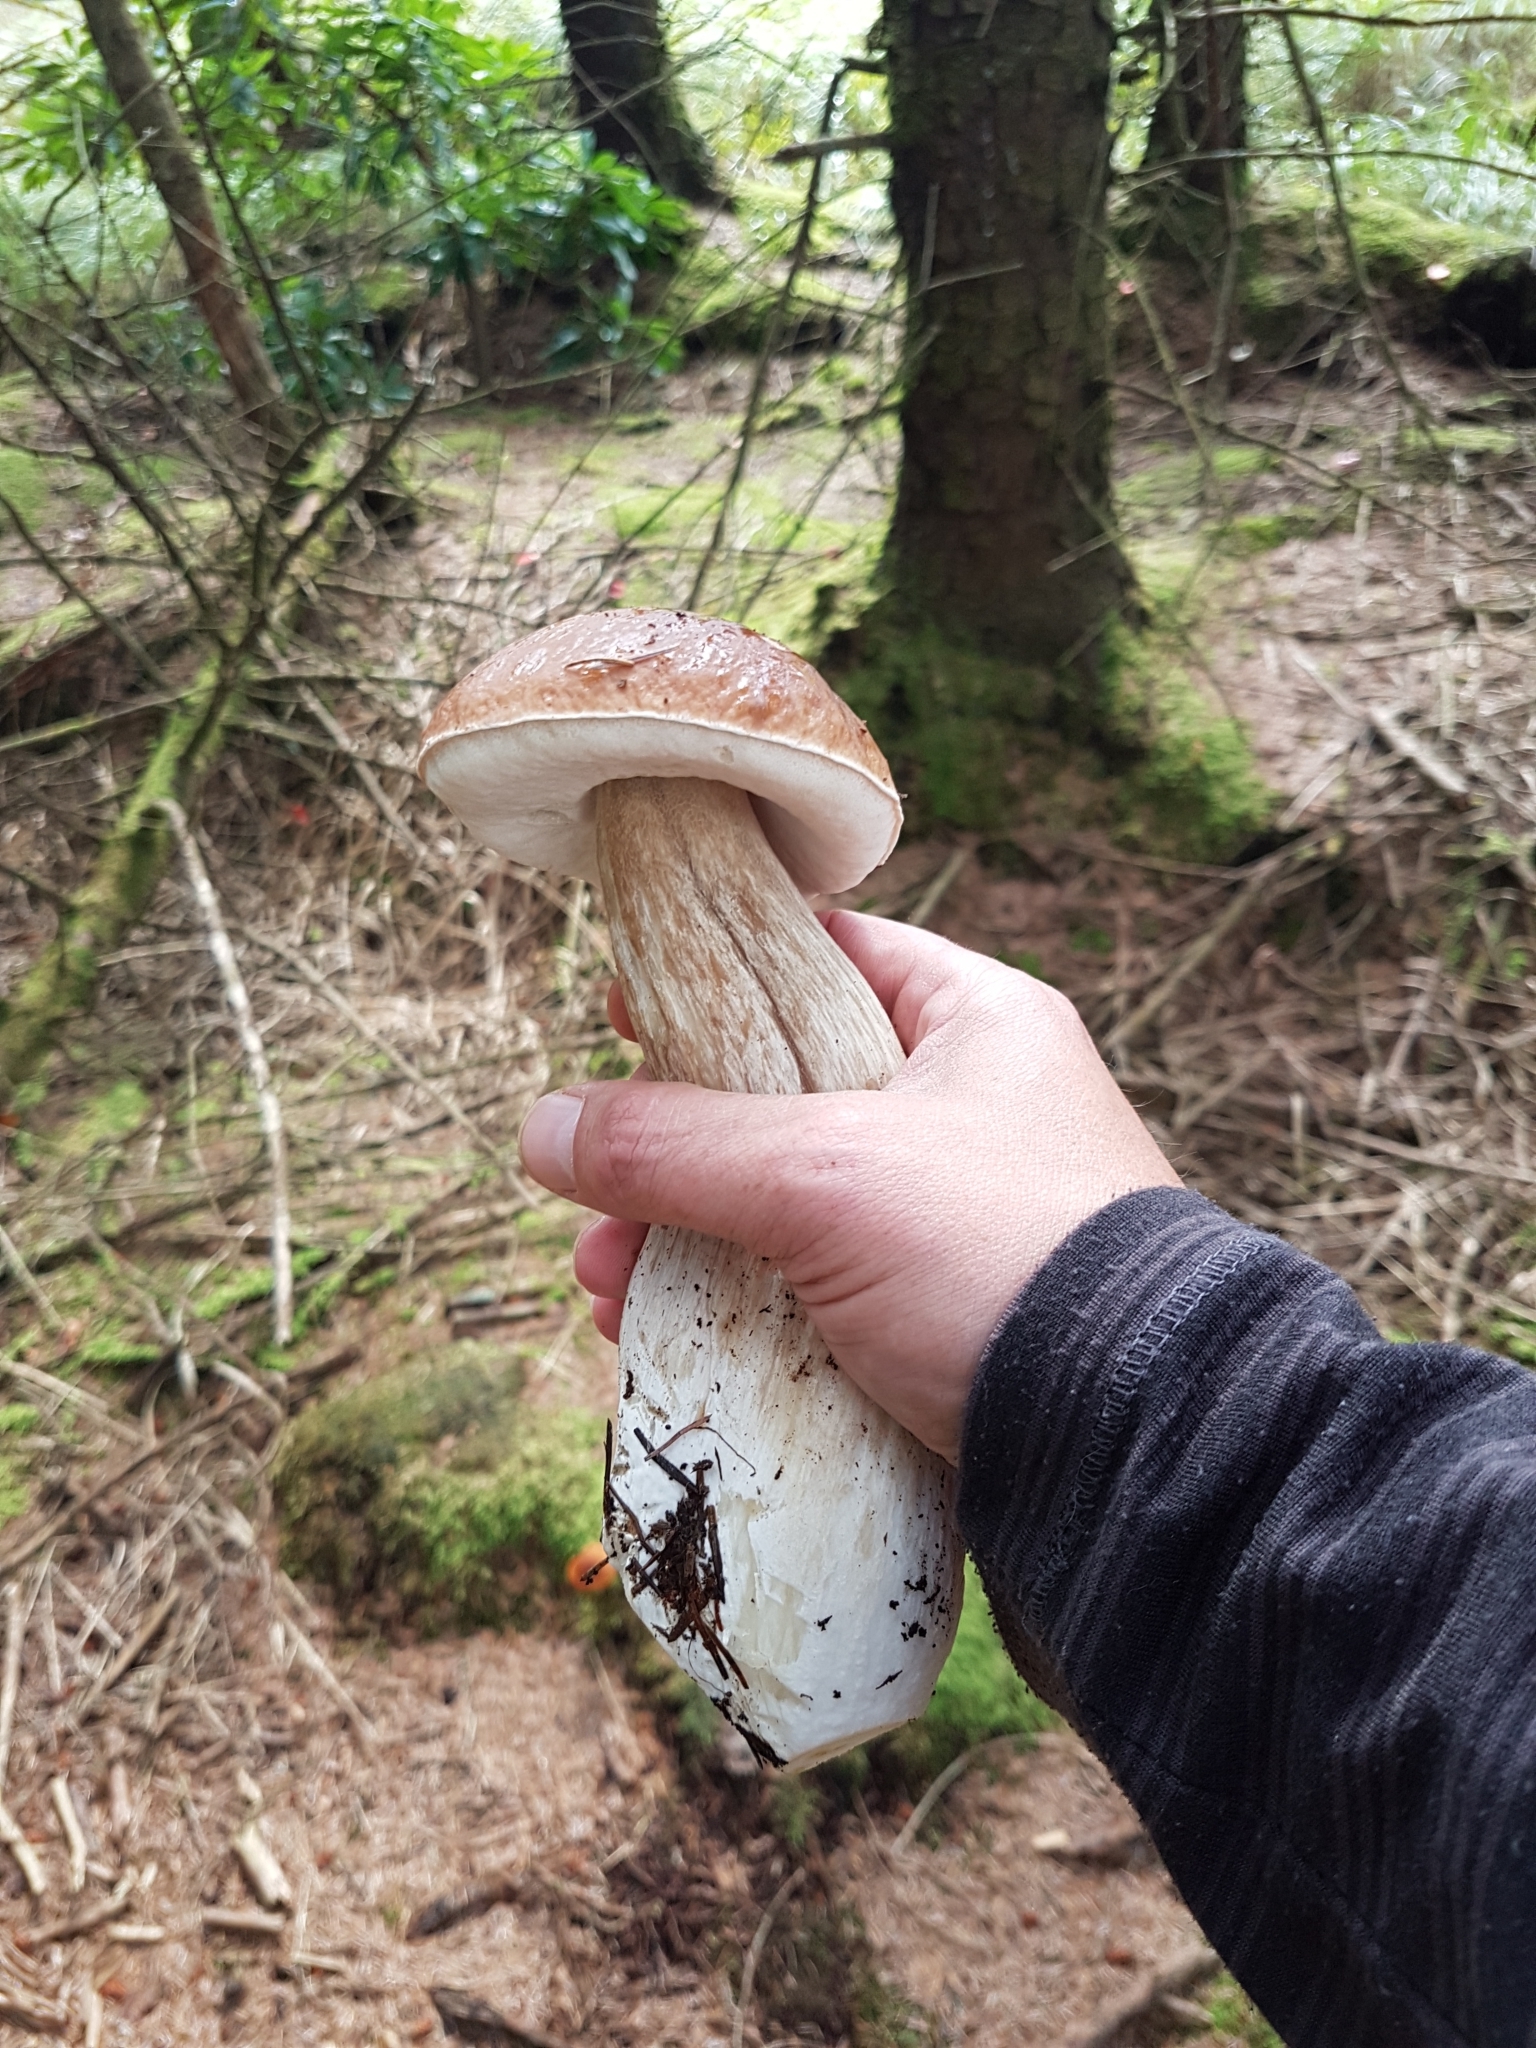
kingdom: Fungi
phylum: Basidiomycota
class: Agaricomycetes
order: Boletales
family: Boletaceae
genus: Boletus
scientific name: Boletus edulis
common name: Cep
